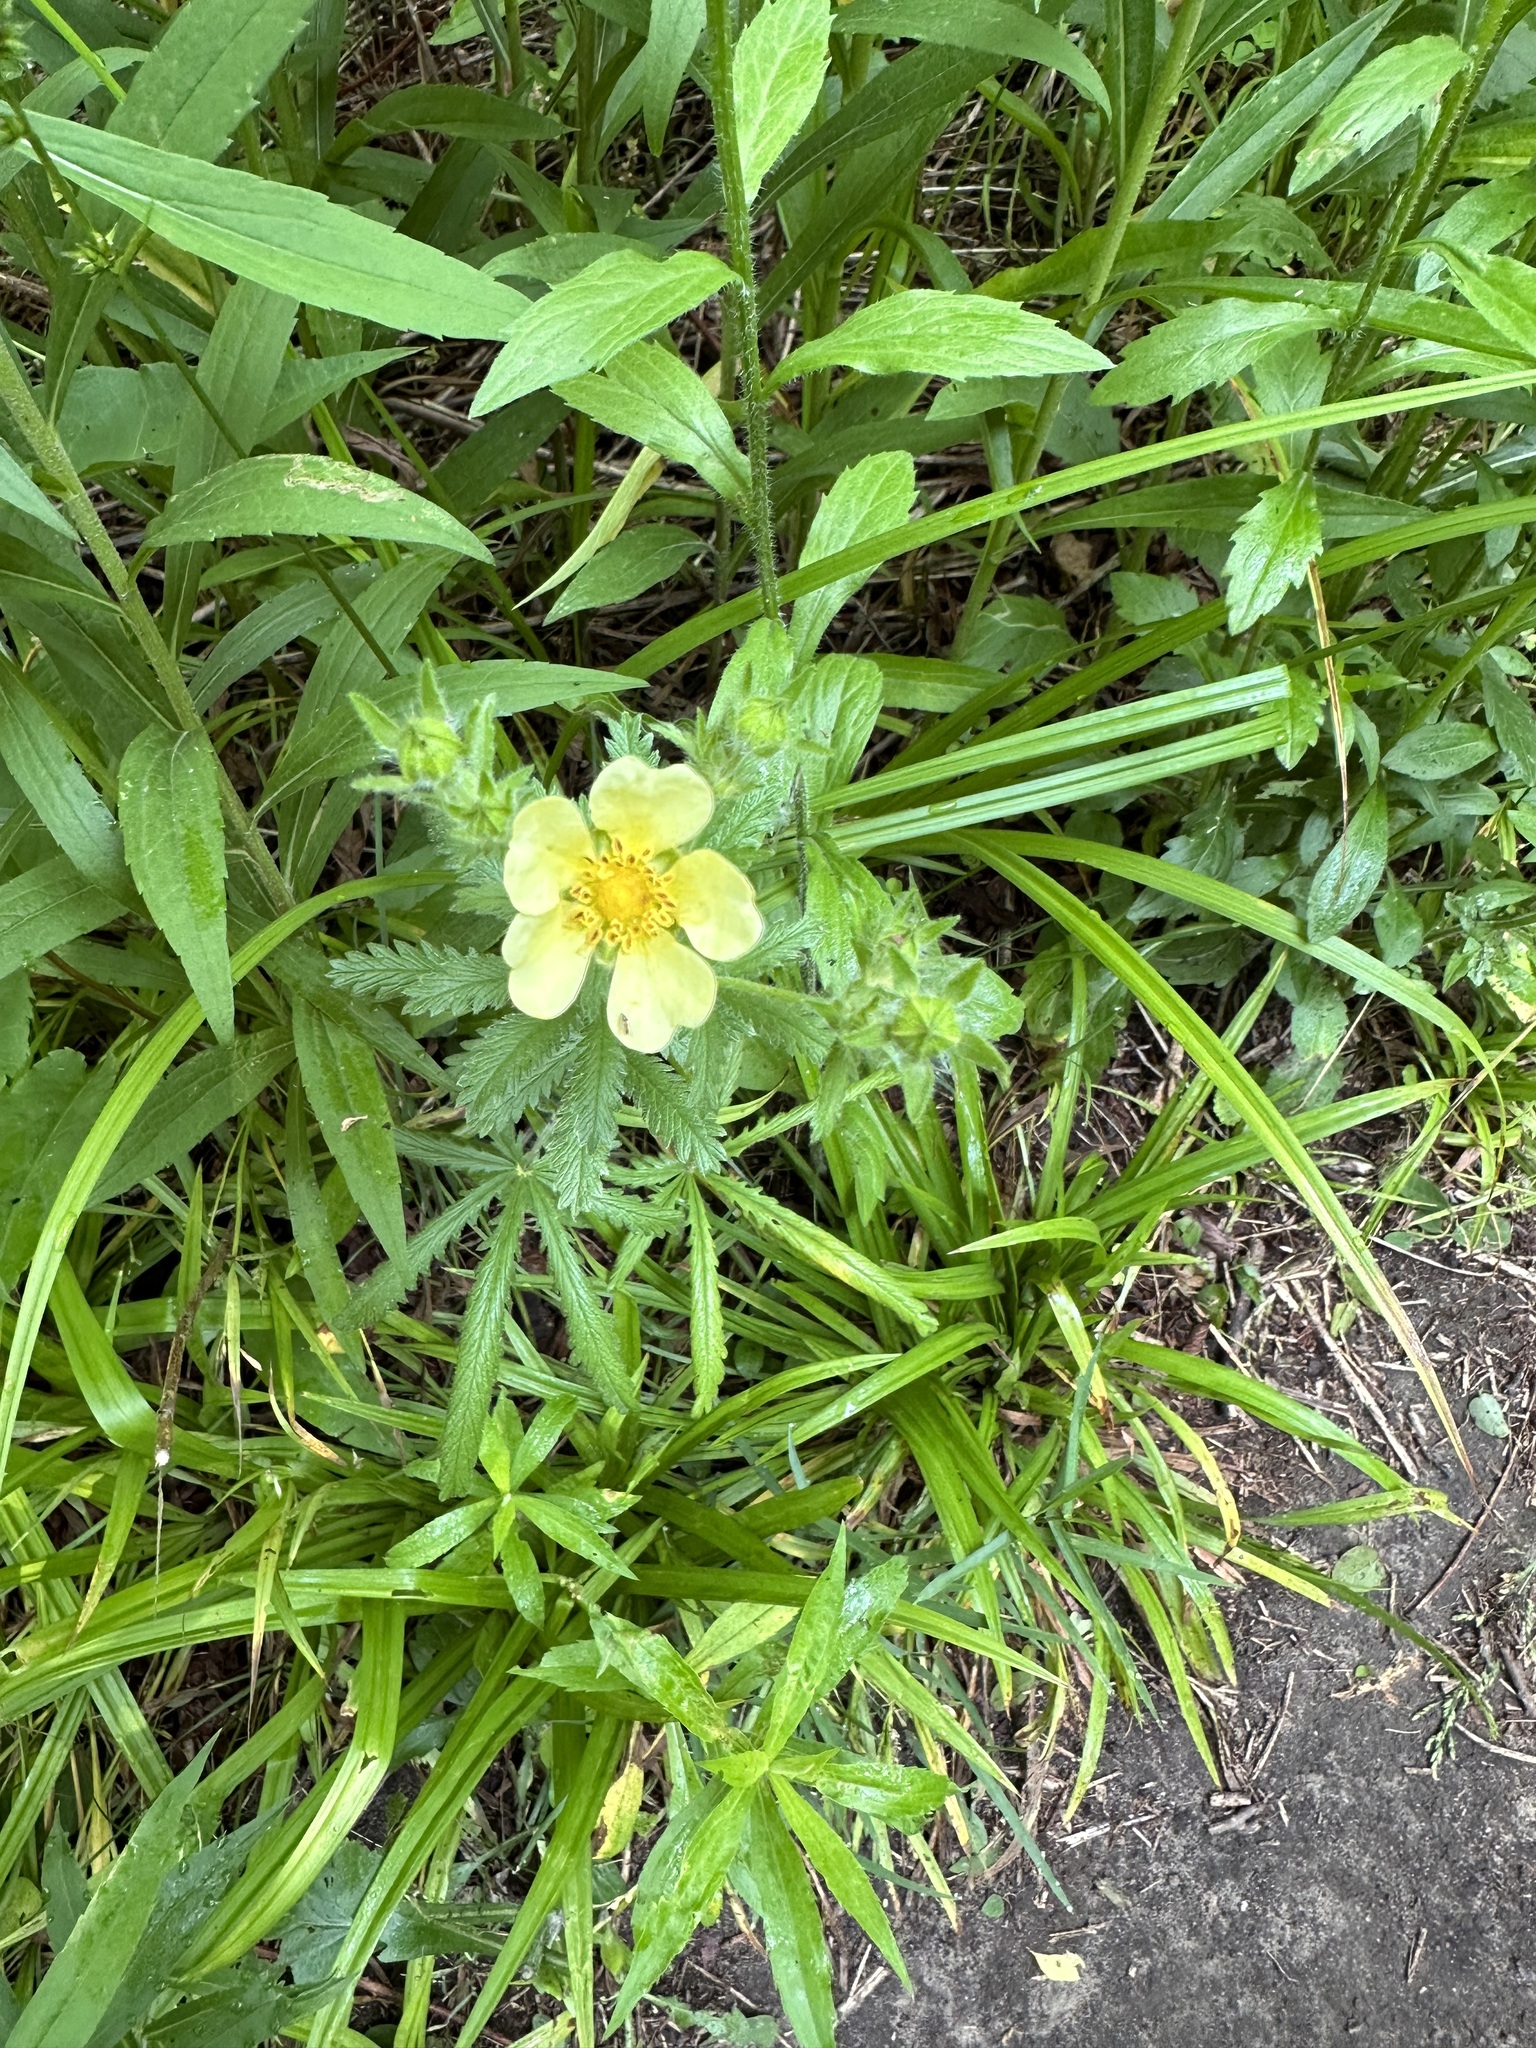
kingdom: Plantae
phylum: Tracheophyta
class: Magnoliopsida
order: Rosales
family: Rosaceae
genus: Potentilla
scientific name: Potentilla recta
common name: Sulphur cinquefoil
